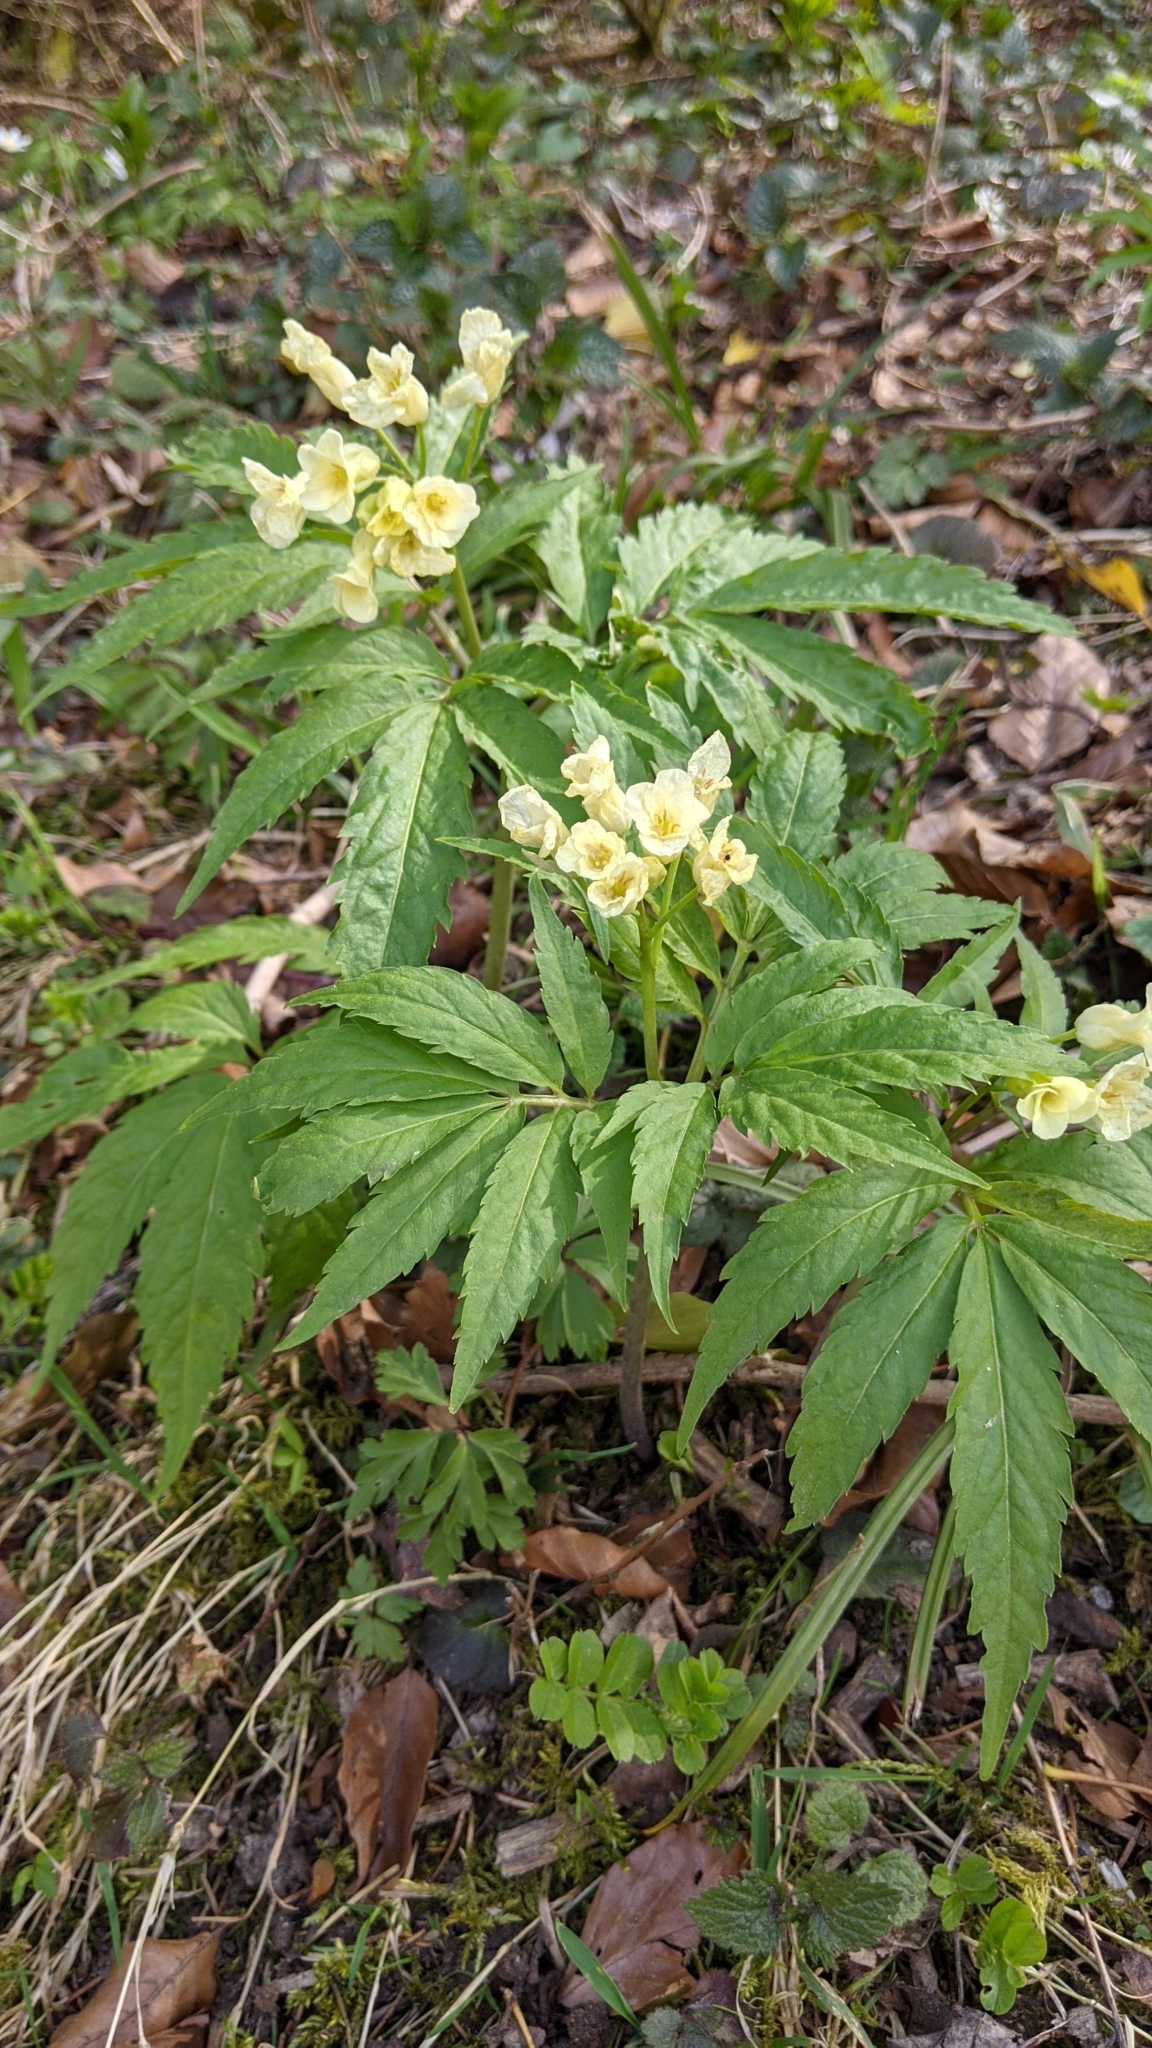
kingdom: Plantae
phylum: Tracheophyta
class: Magnoliopsida
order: Brassicales
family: Brassicaceae
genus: Cardamine
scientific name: Cardamine kitaibelii
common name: Kitaibel's bitter-cress
